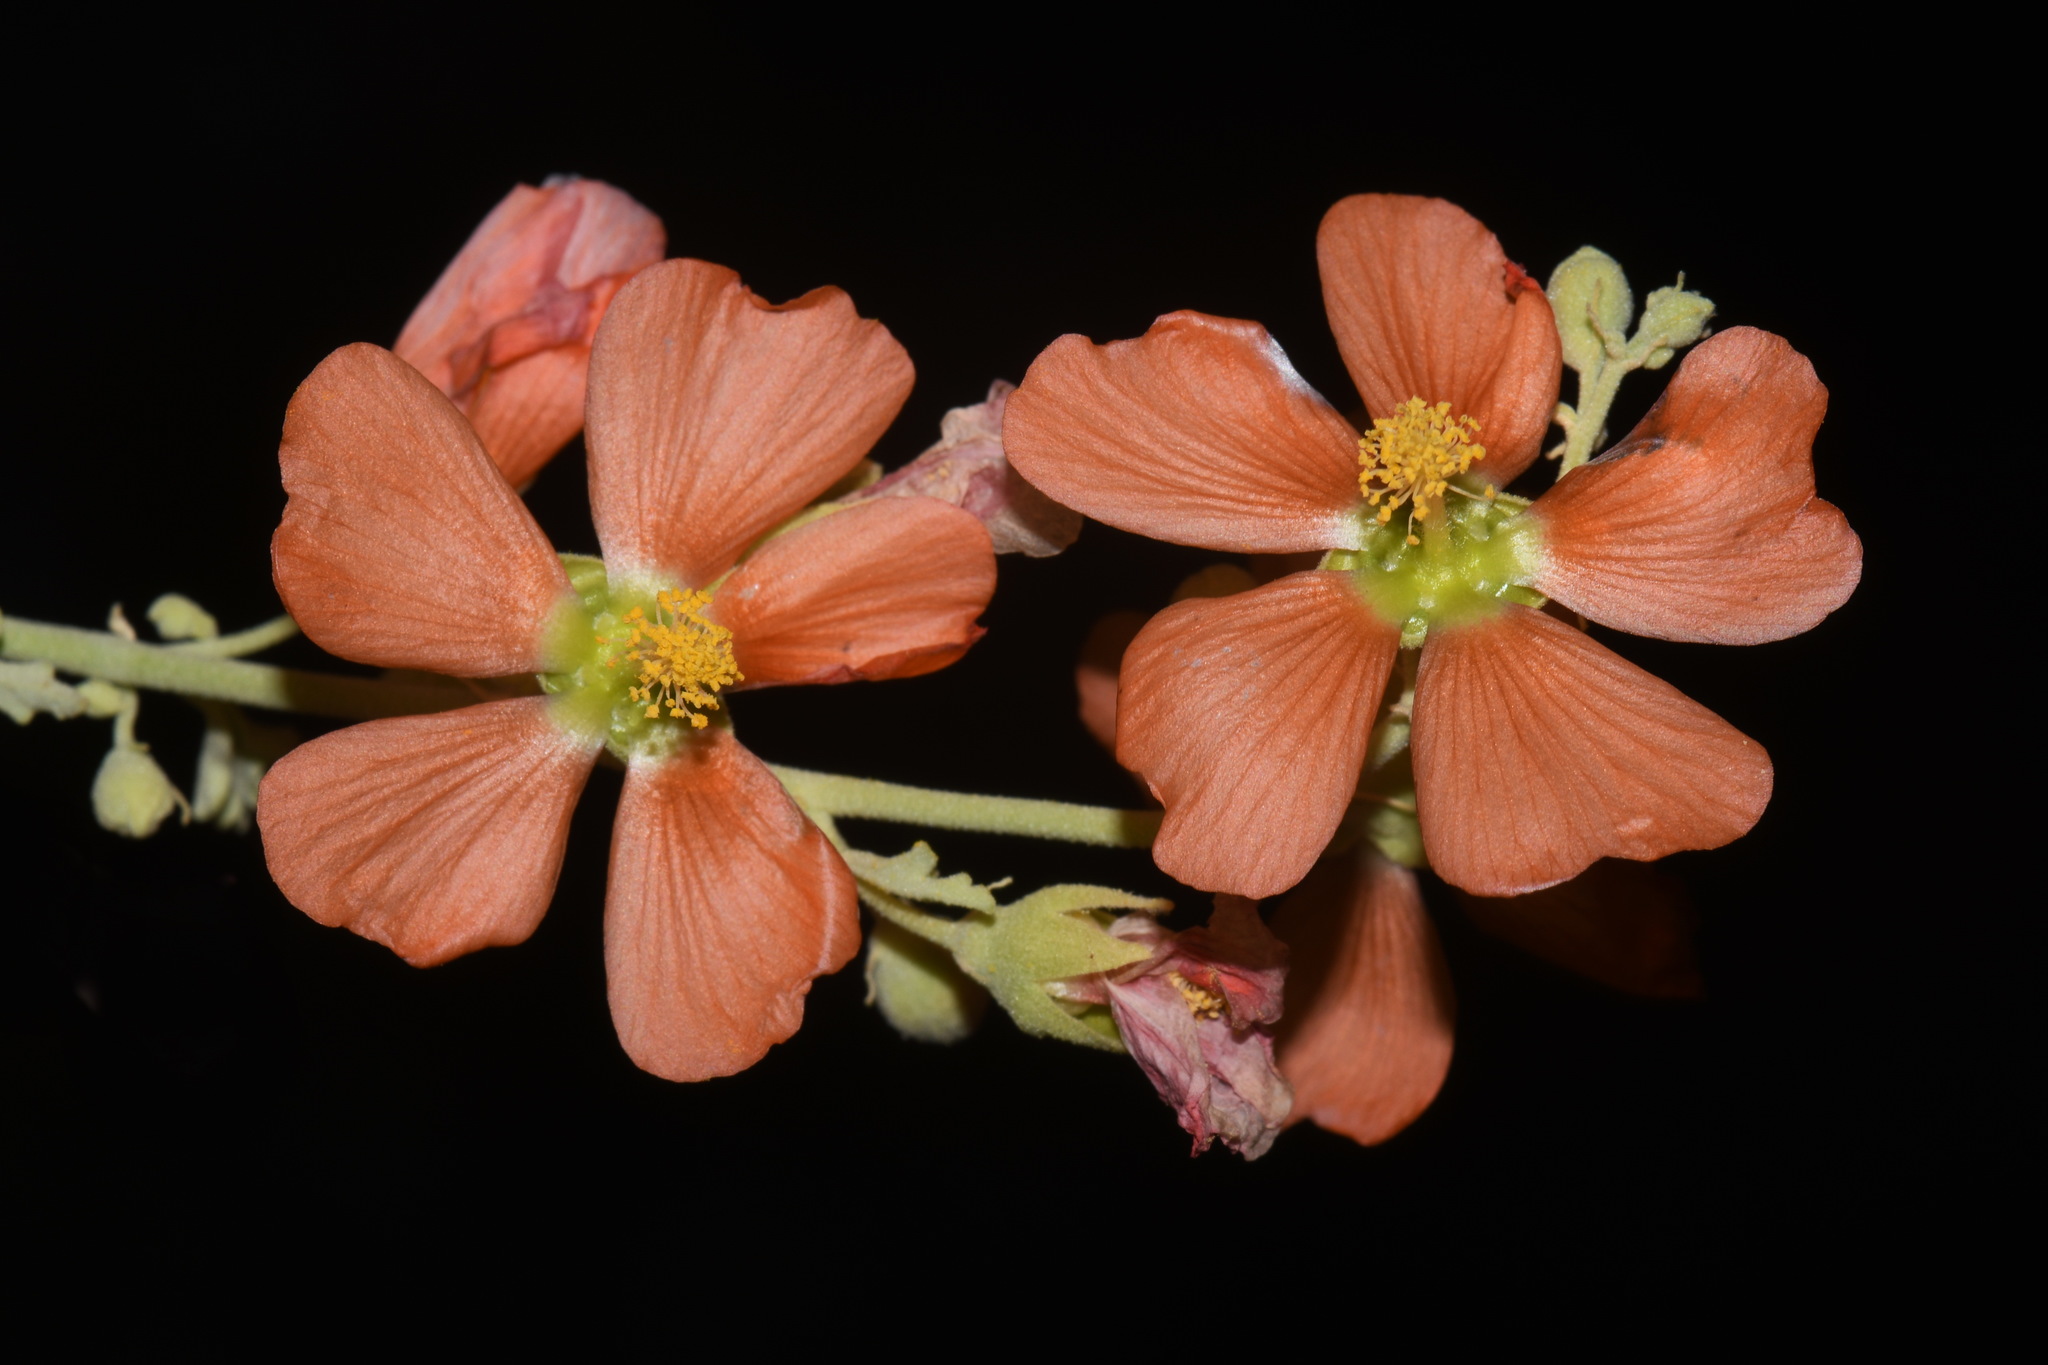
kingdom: Plantae
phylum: Tracheophyta
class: Magnoliopsida
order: Malvales
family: Malvaceae
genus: Sphaeralcea
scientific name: Sphaeralcea incana
